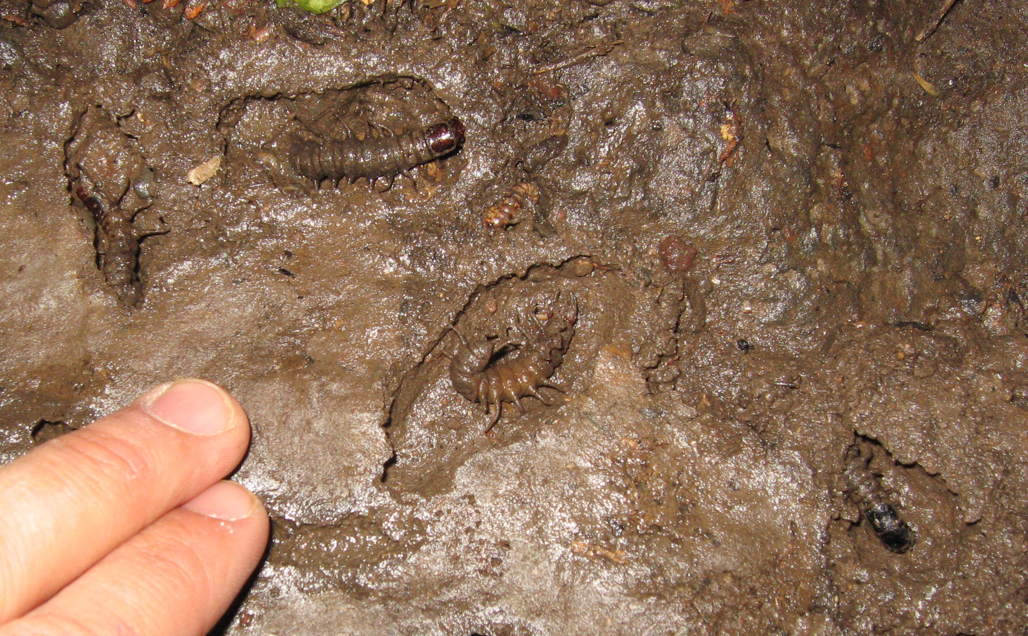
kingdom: Animalia
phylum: Arthropoda
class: Insecta
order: Megaloptera
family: Corydalidae
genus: Archichauliodes
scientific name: Archichauliodes diversus
